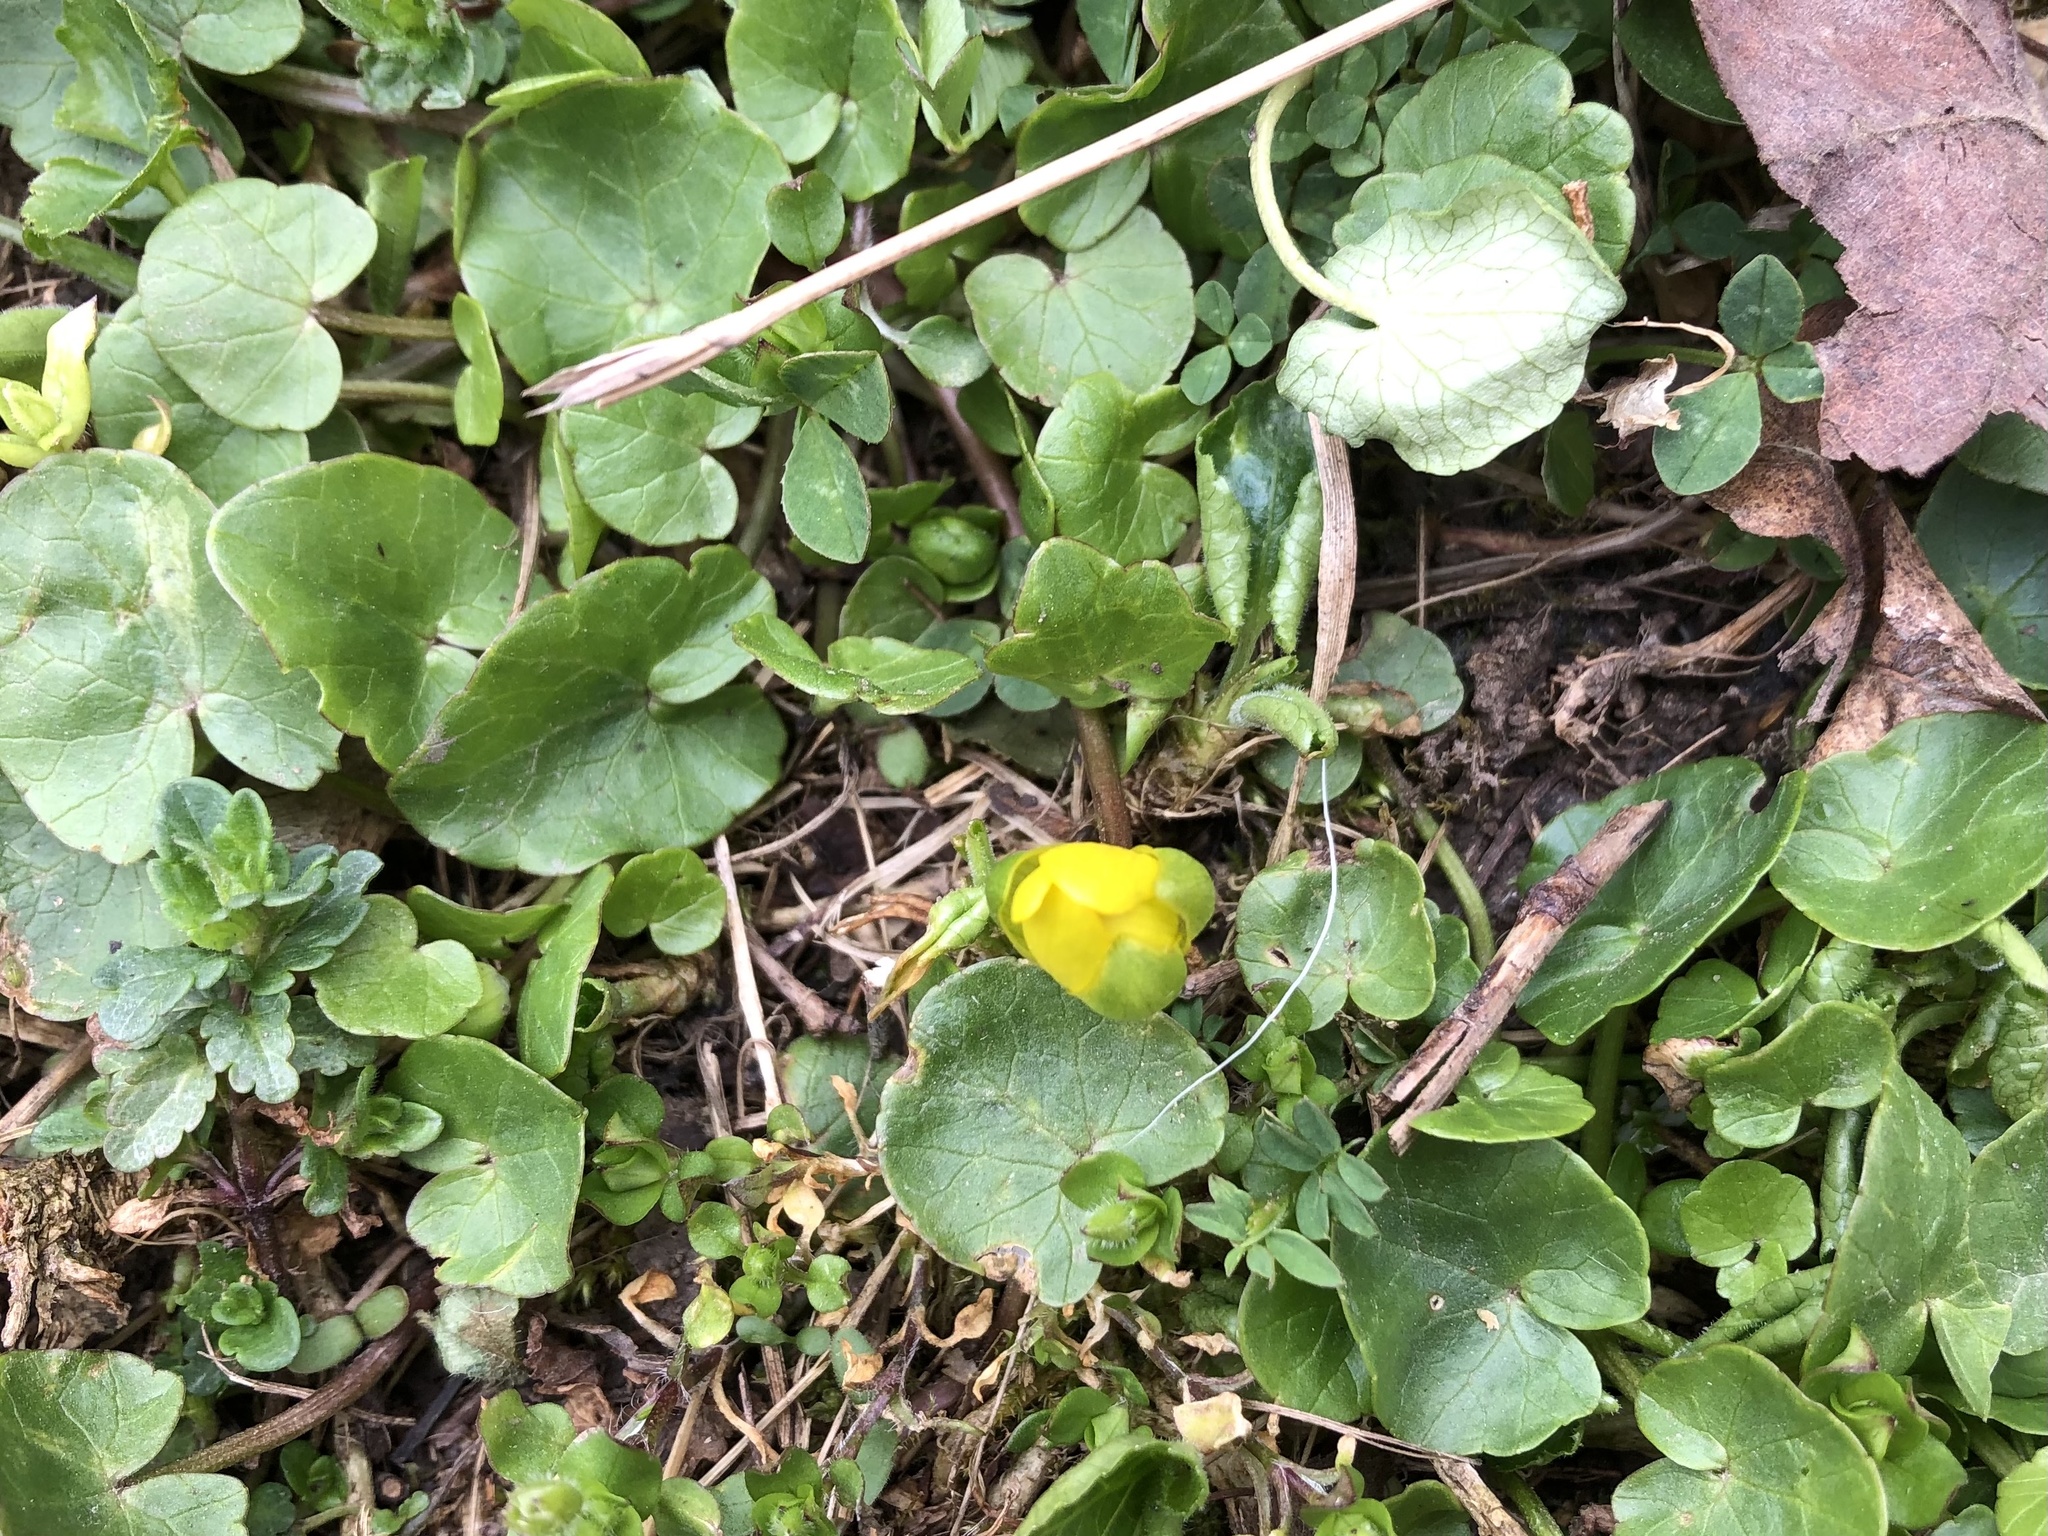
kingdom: Plantae
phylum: Tracheophyta
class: Magnoliopsida
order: Ranunculales
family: Ranunculaceae
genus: Ficaria
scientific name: Ficaria verna
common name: Lesser celandine
